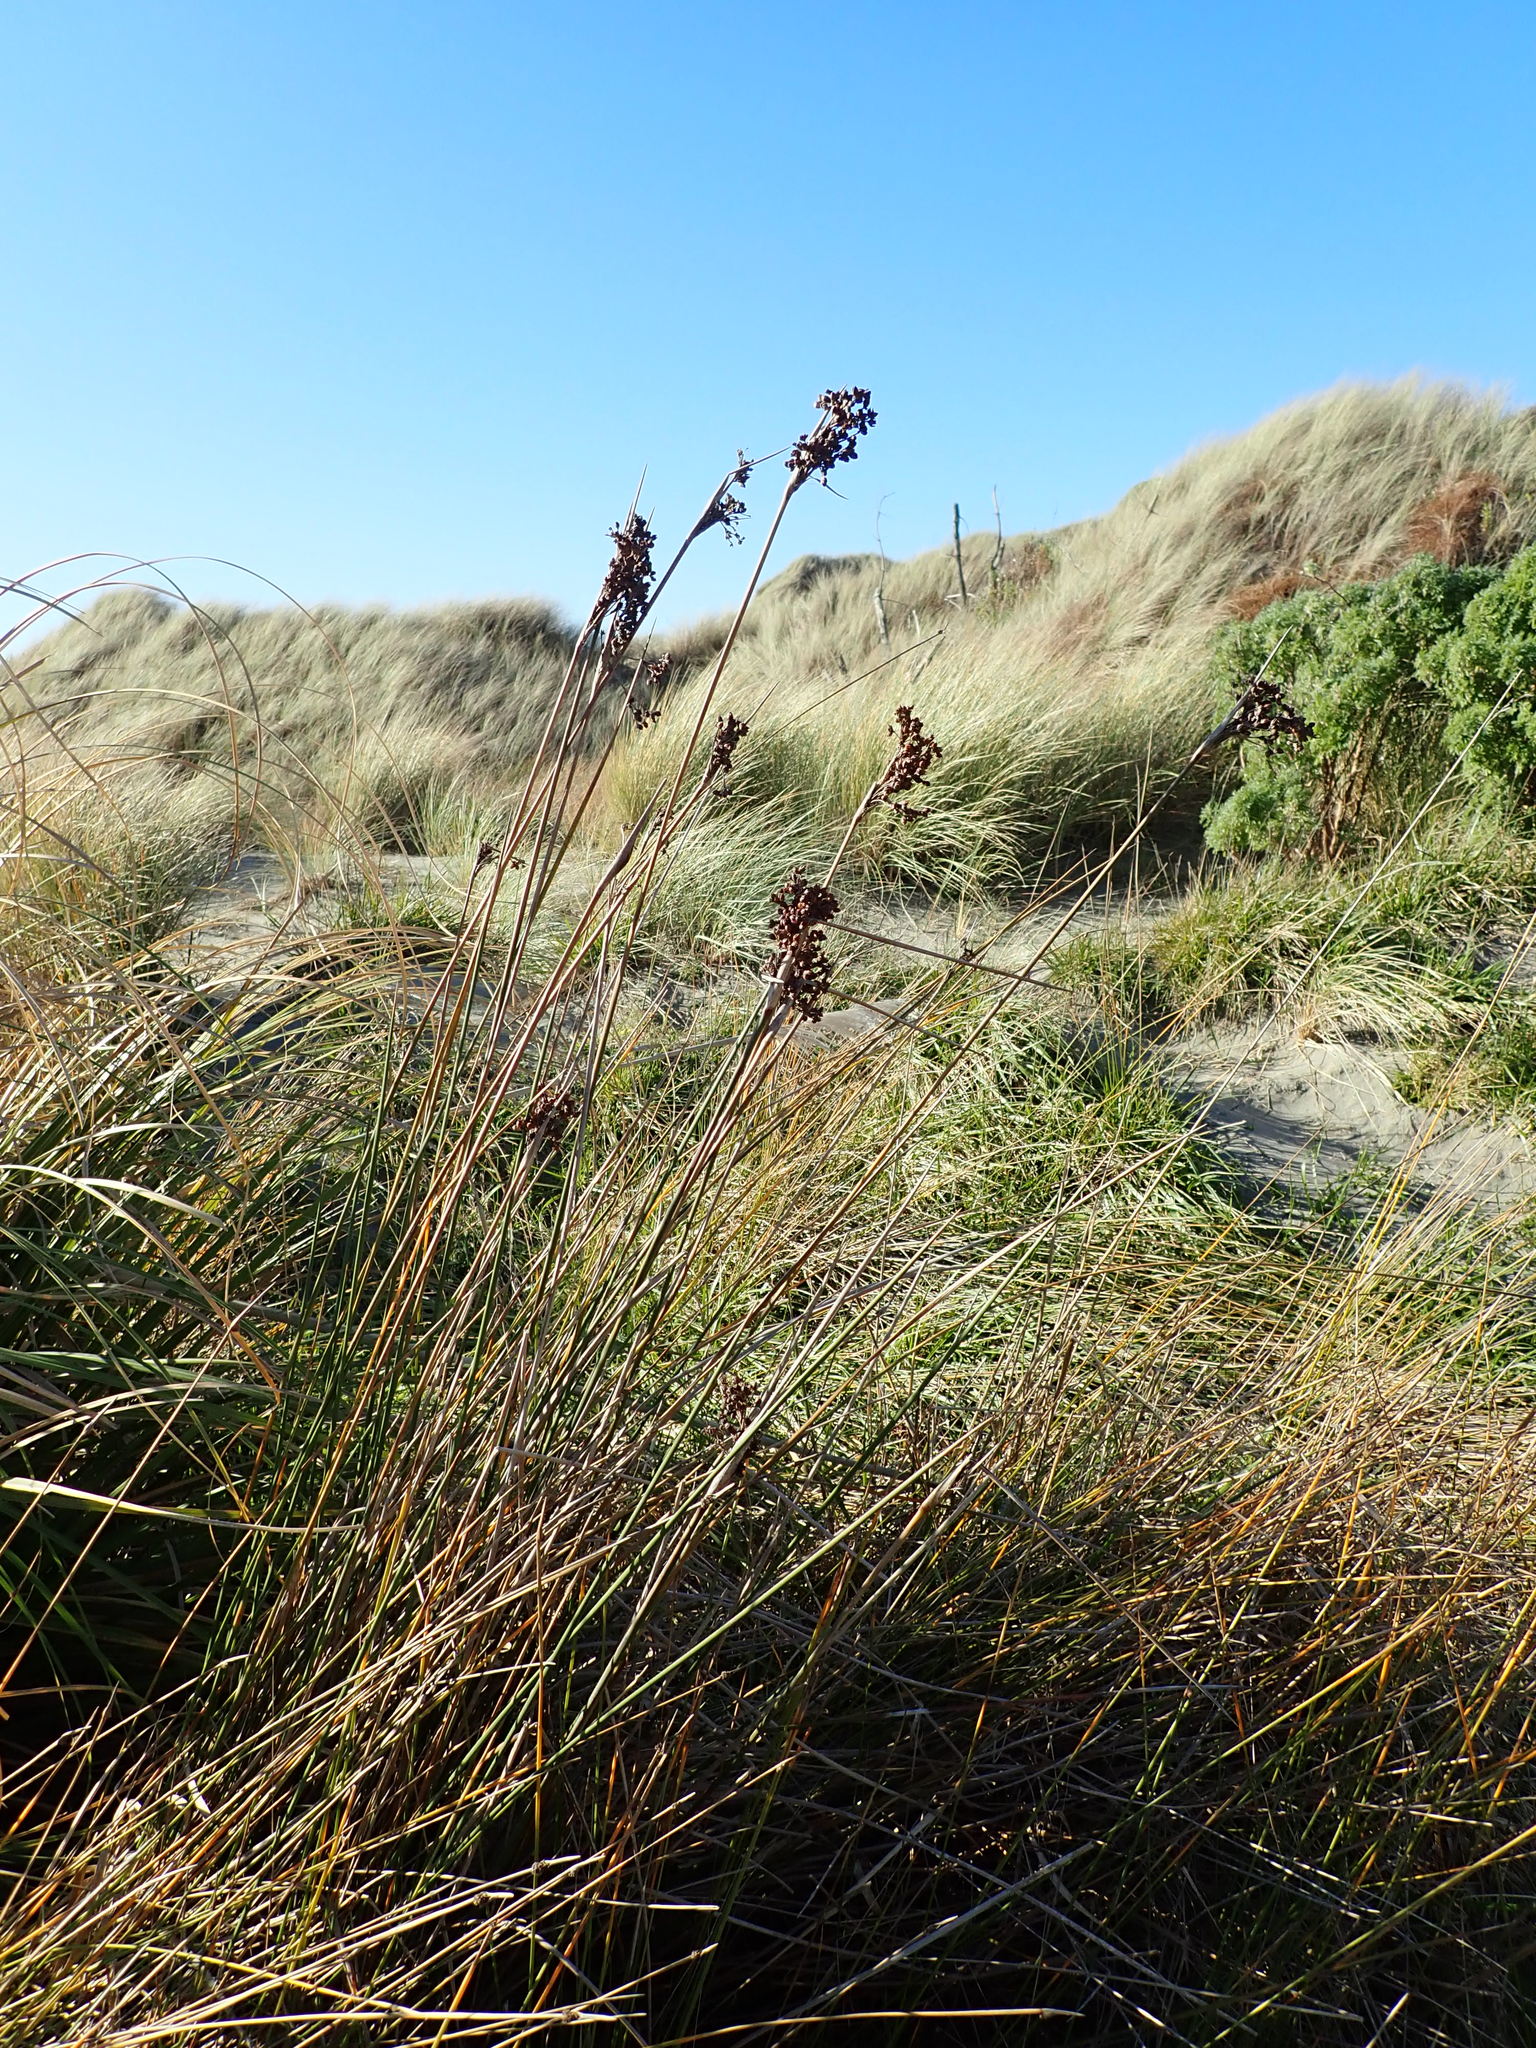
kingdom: Plantae
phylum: Tracheophyta
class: Liliopsida
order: Poales
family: Juncaceae
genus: Juncus
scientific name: Juncus acutus
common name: Sharp rush
